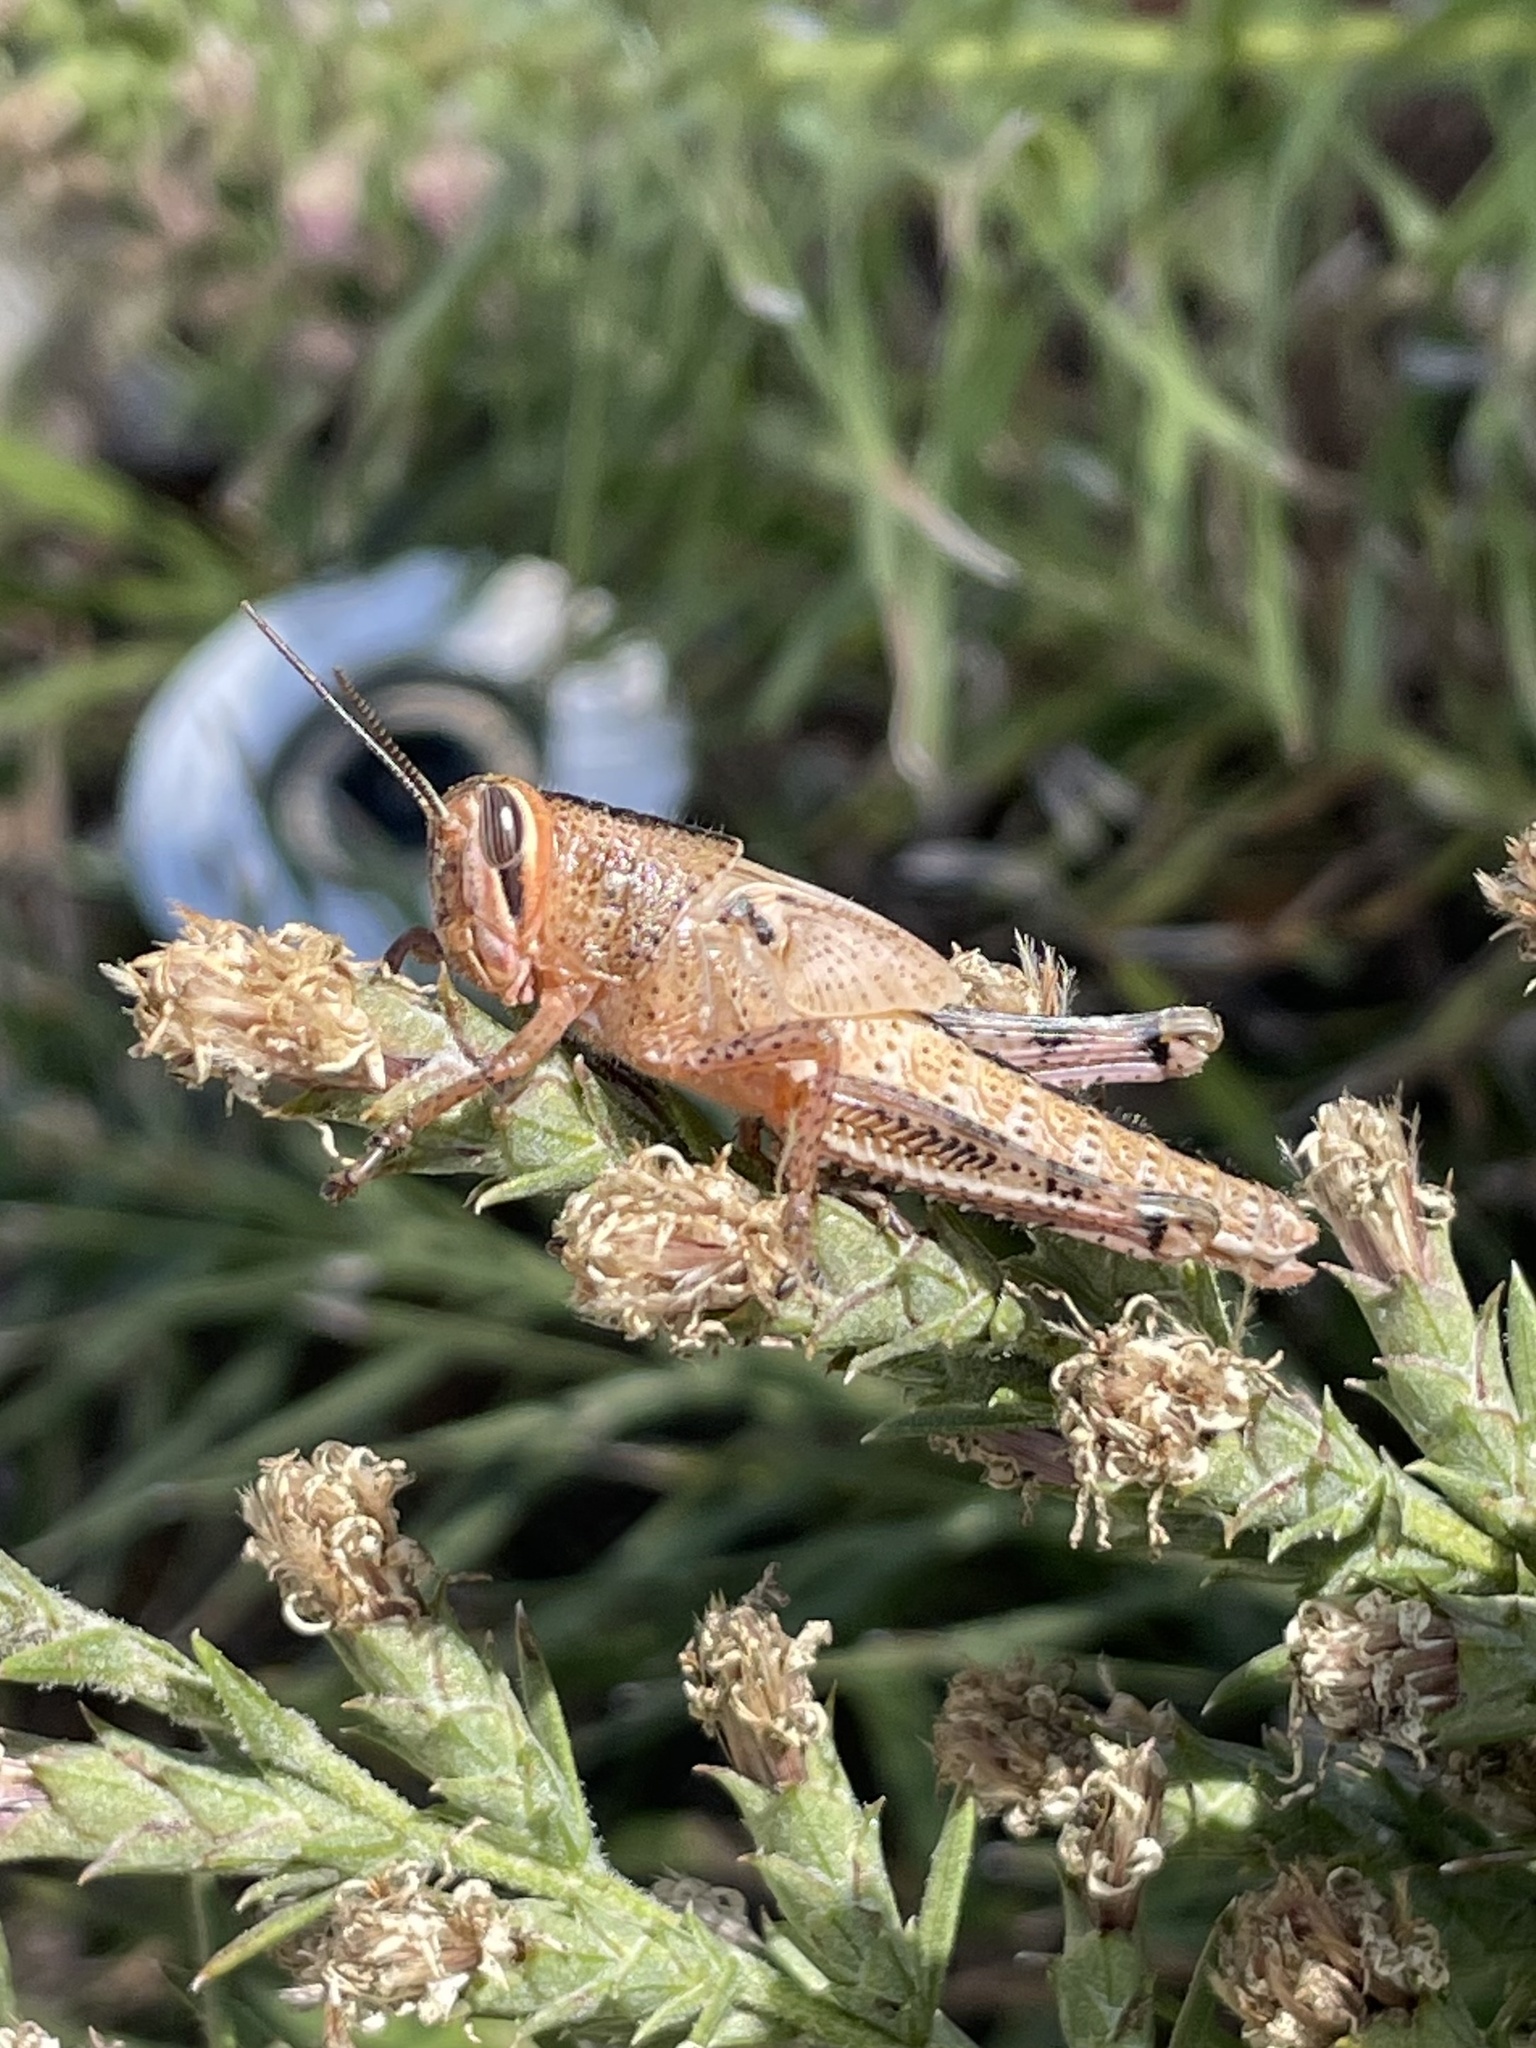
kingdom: Animalia
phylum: Arthropoda
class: Insecta
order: Orthoptera
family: Acrididae
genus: Schistocerca
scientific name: Schistocerca americana
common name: American bird locust
